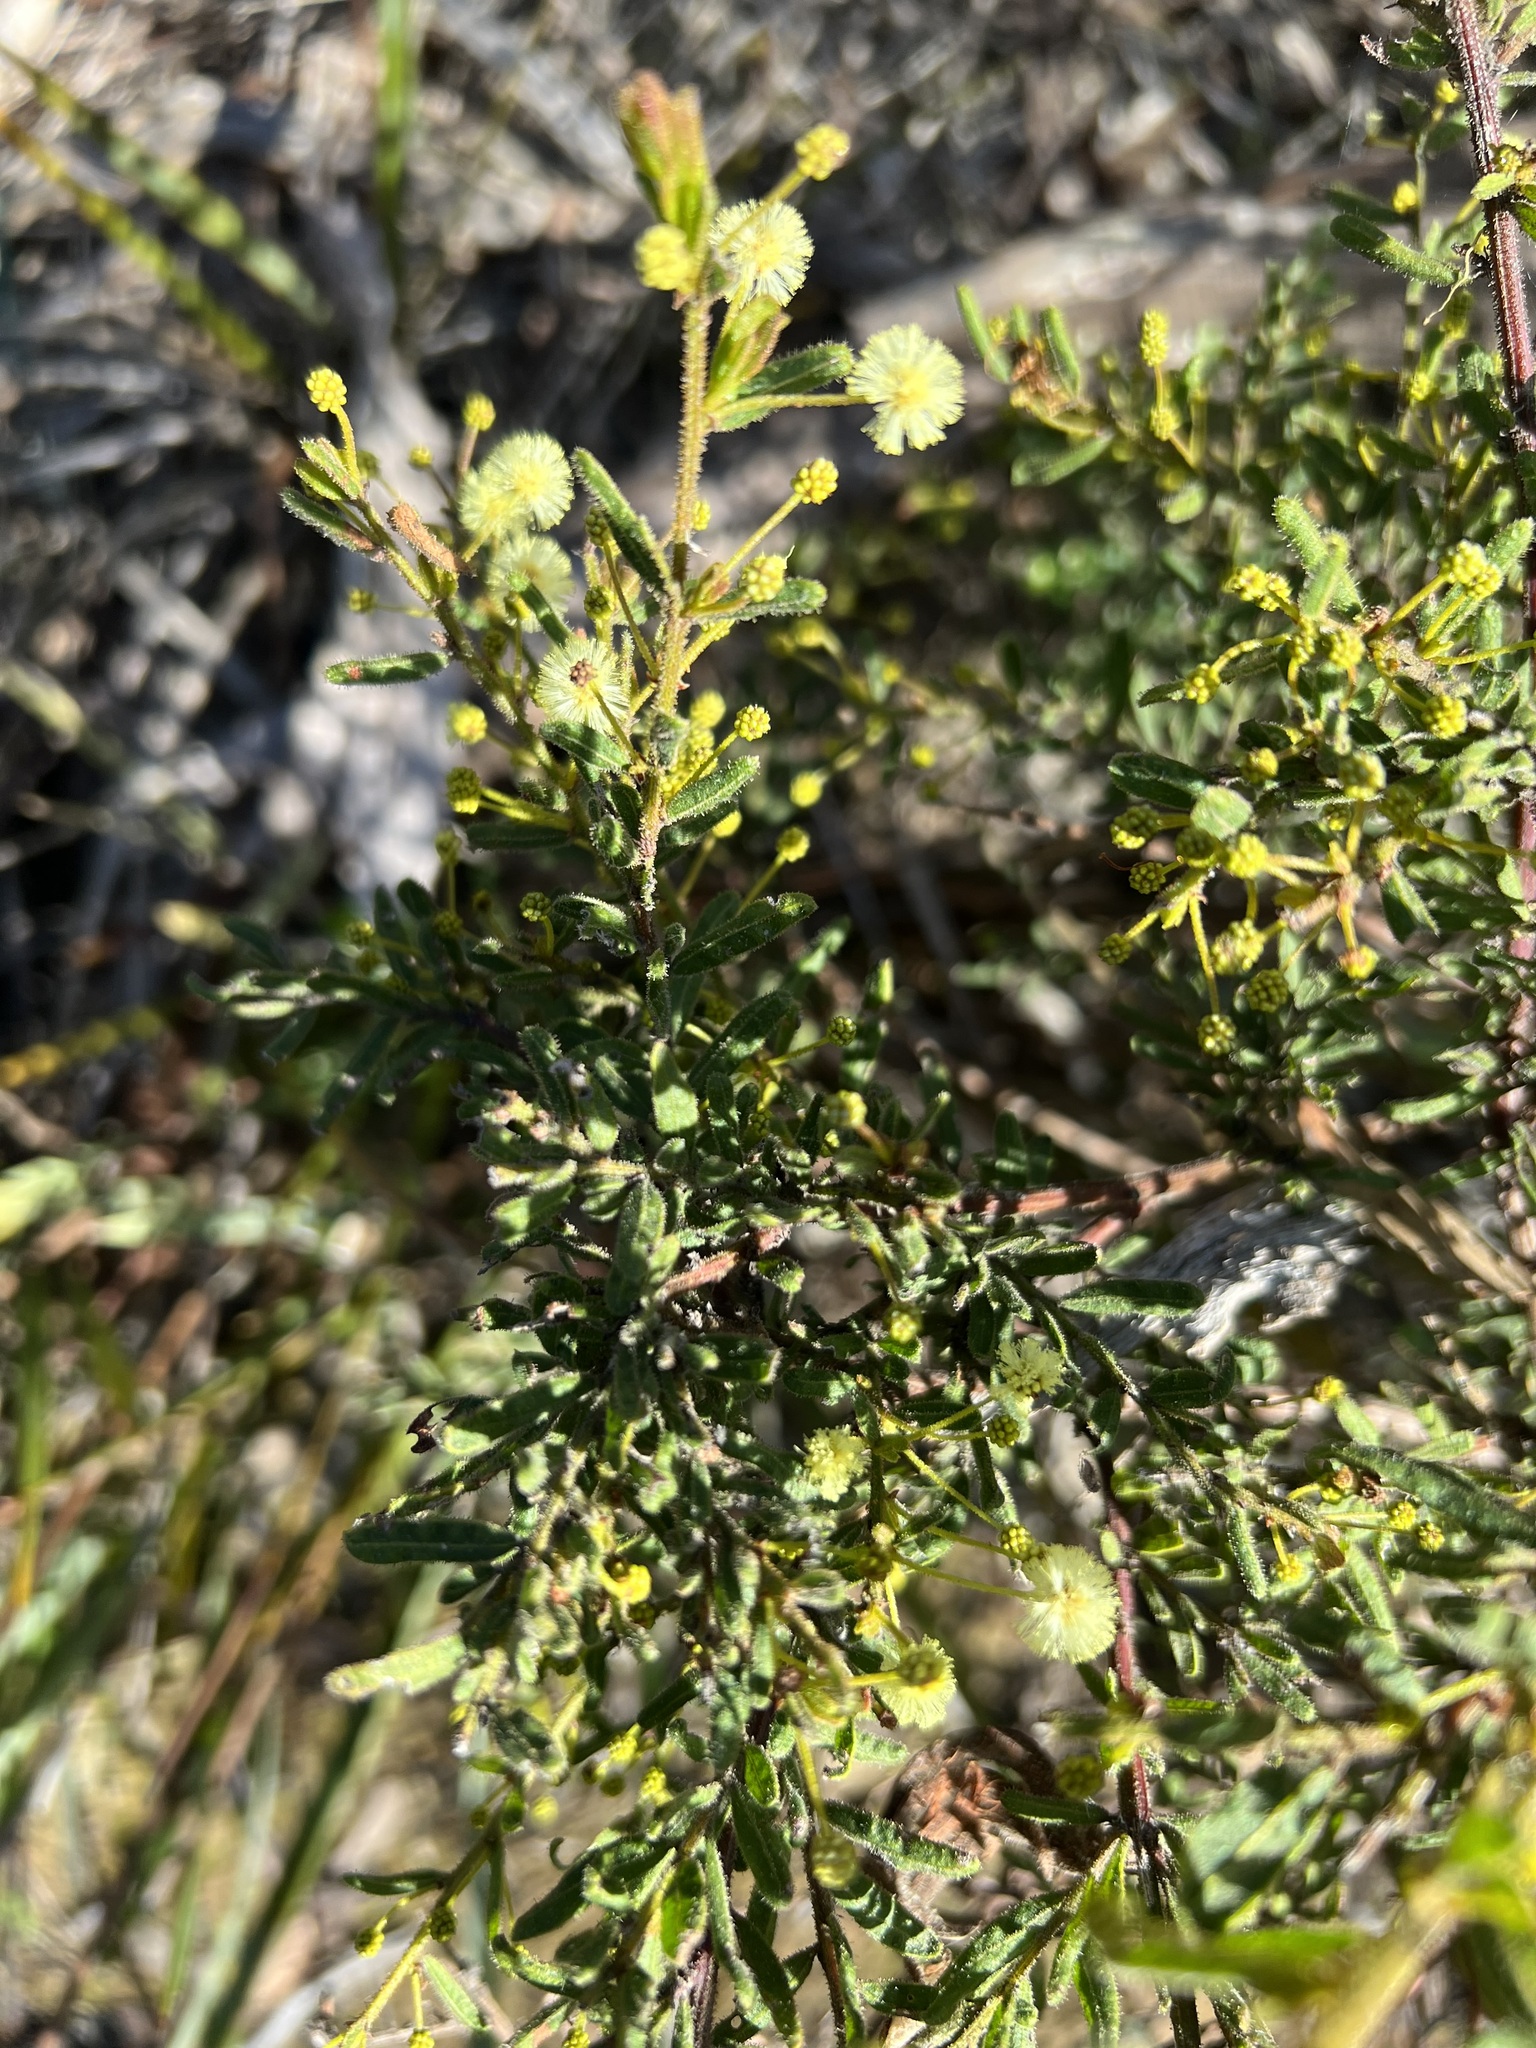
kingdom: Plantae
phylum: Tracheophyta
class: Magnoliopsida
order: Fabales
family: Fabaceae
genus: Acacia
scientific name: Acacia aspera
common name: Rough wattle
